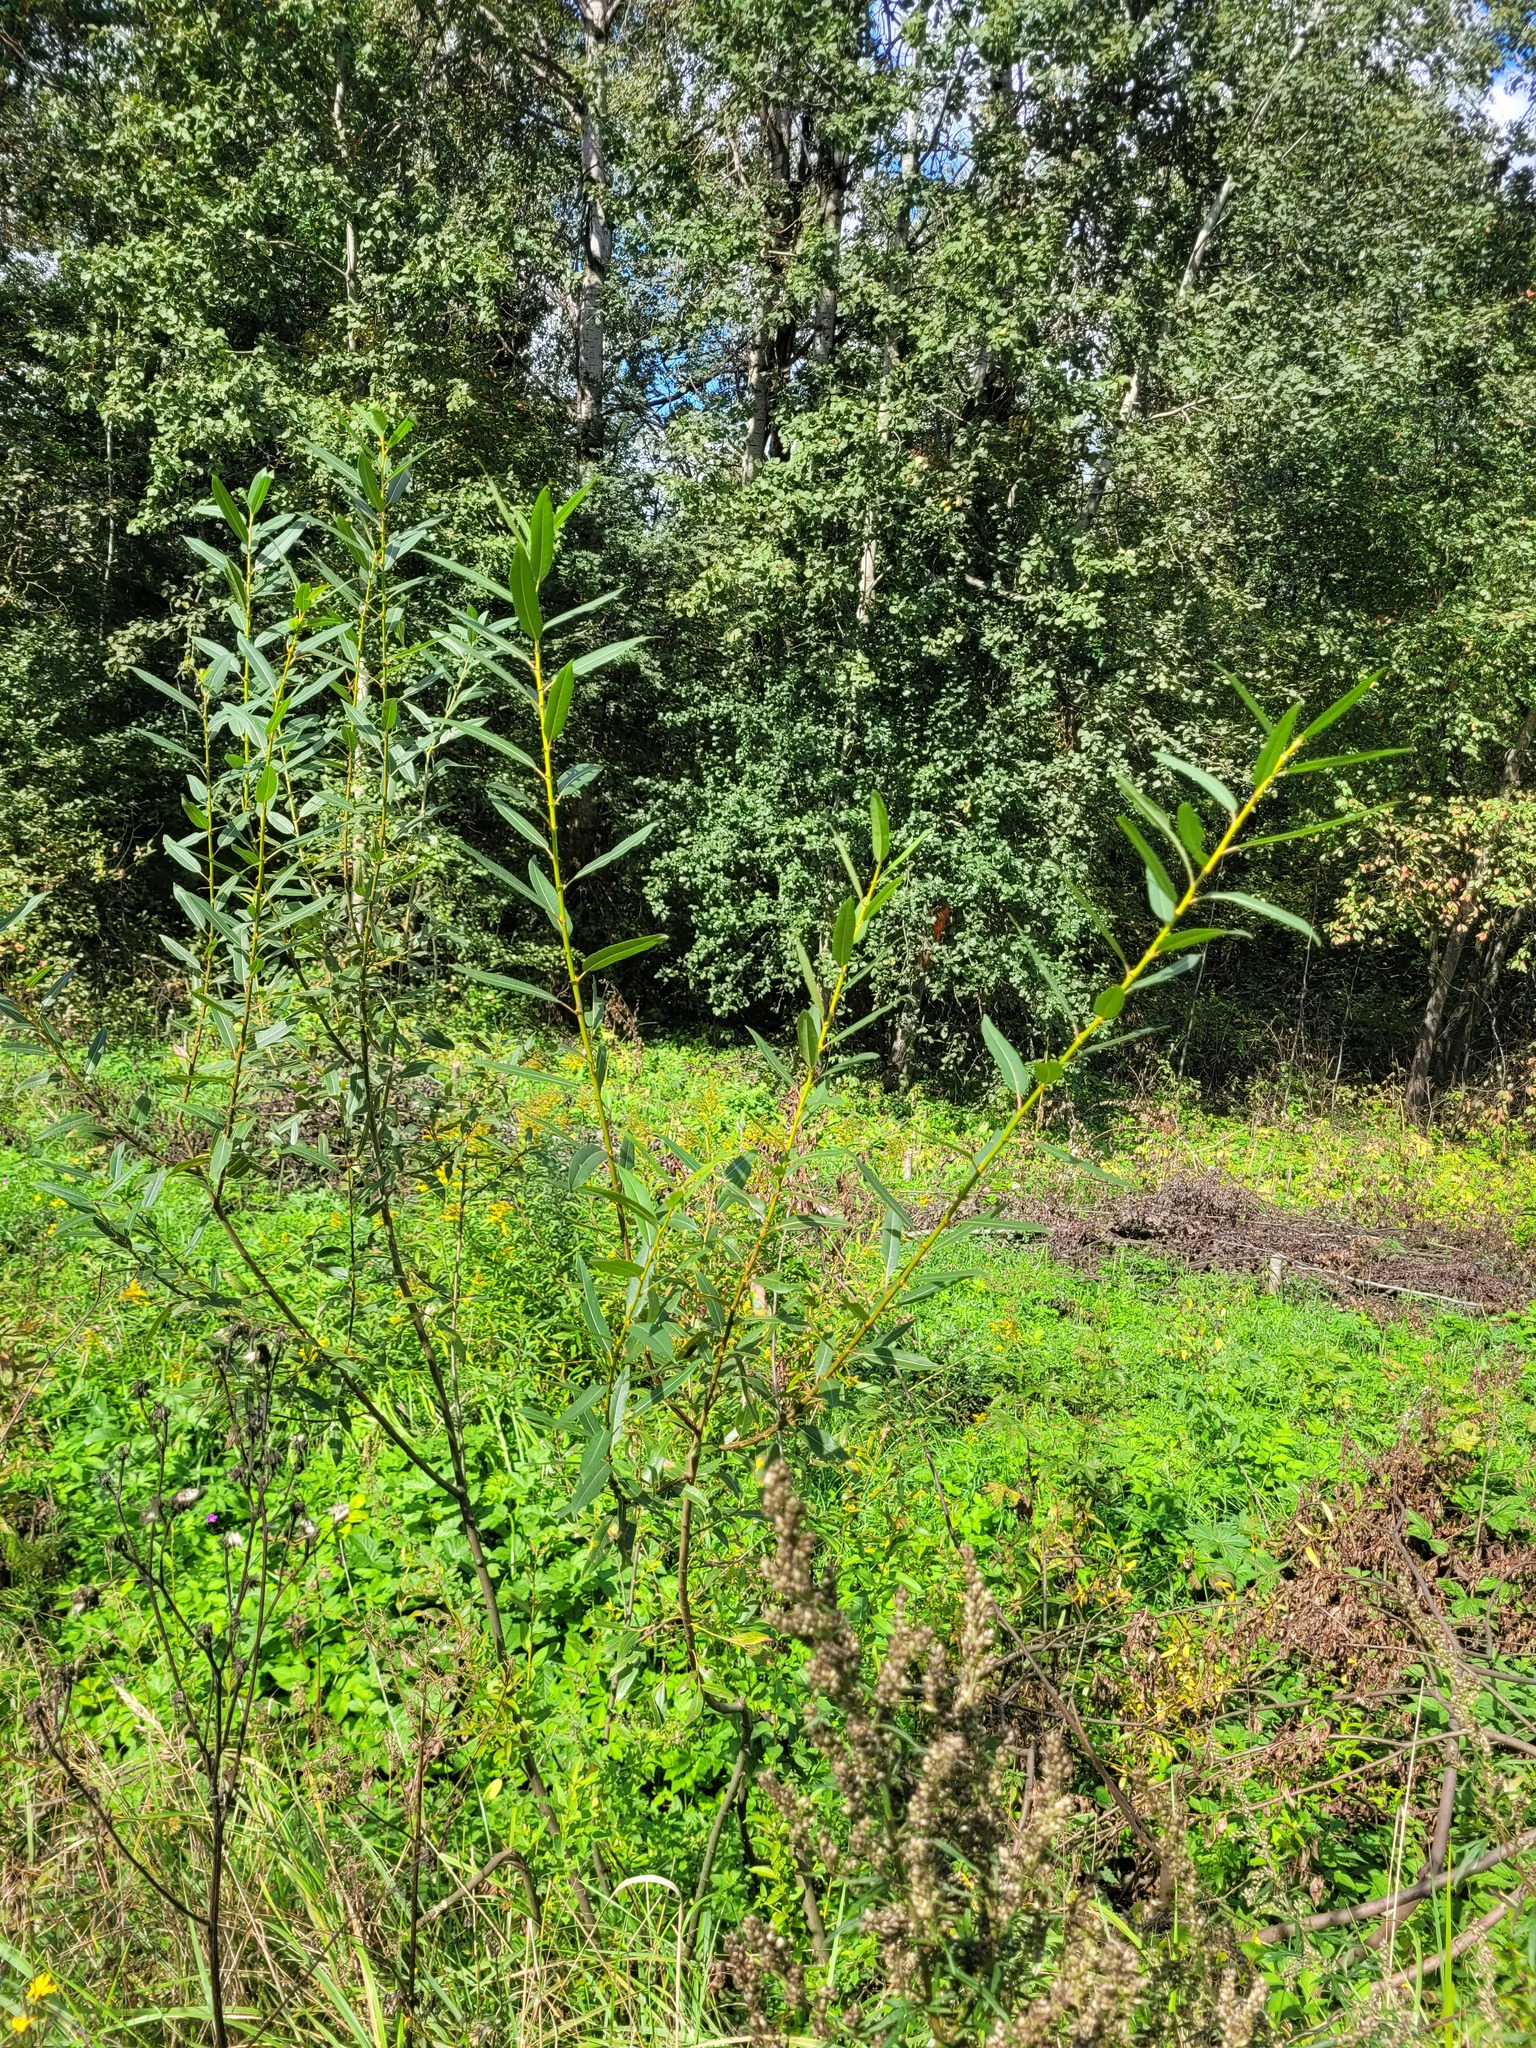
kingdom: Plantae
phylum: Tracheophyta
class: Magnoliopsida
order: Malpighiales
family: Salicaceae
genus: Salix
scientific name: Salix triandra
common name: Almond willow
